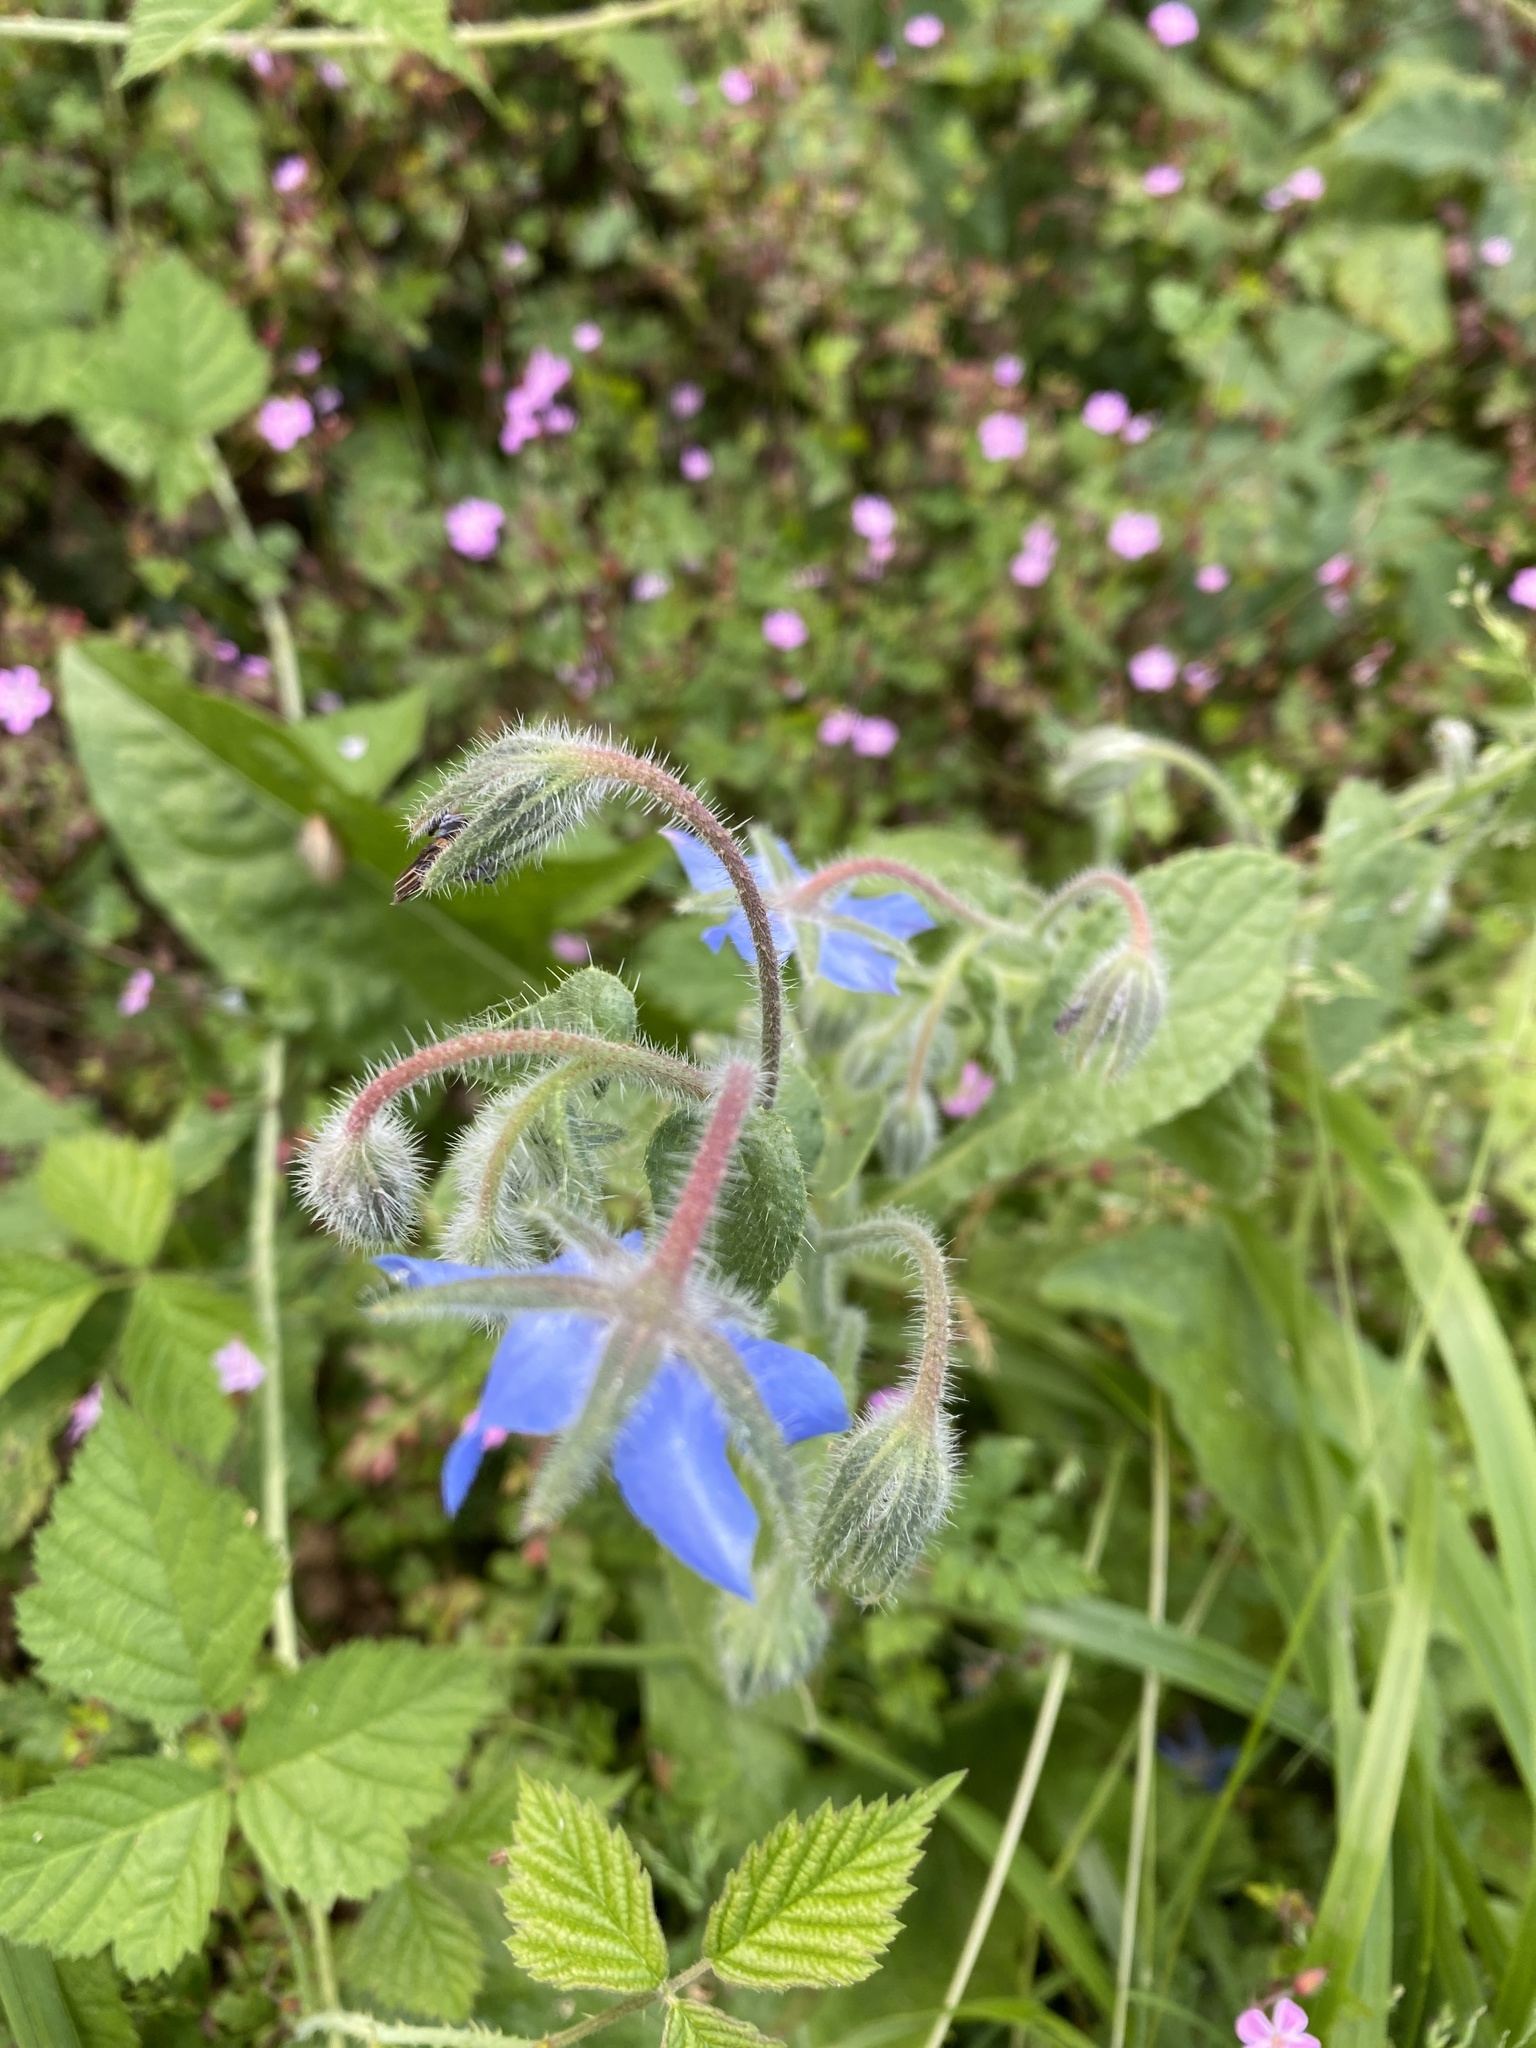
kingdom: Plantae
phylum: Tracheophyta
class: Magnoliopsida
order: Boraginales
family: Boraginaceae
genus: Borago
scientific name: Borago officinalis
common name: Borage
